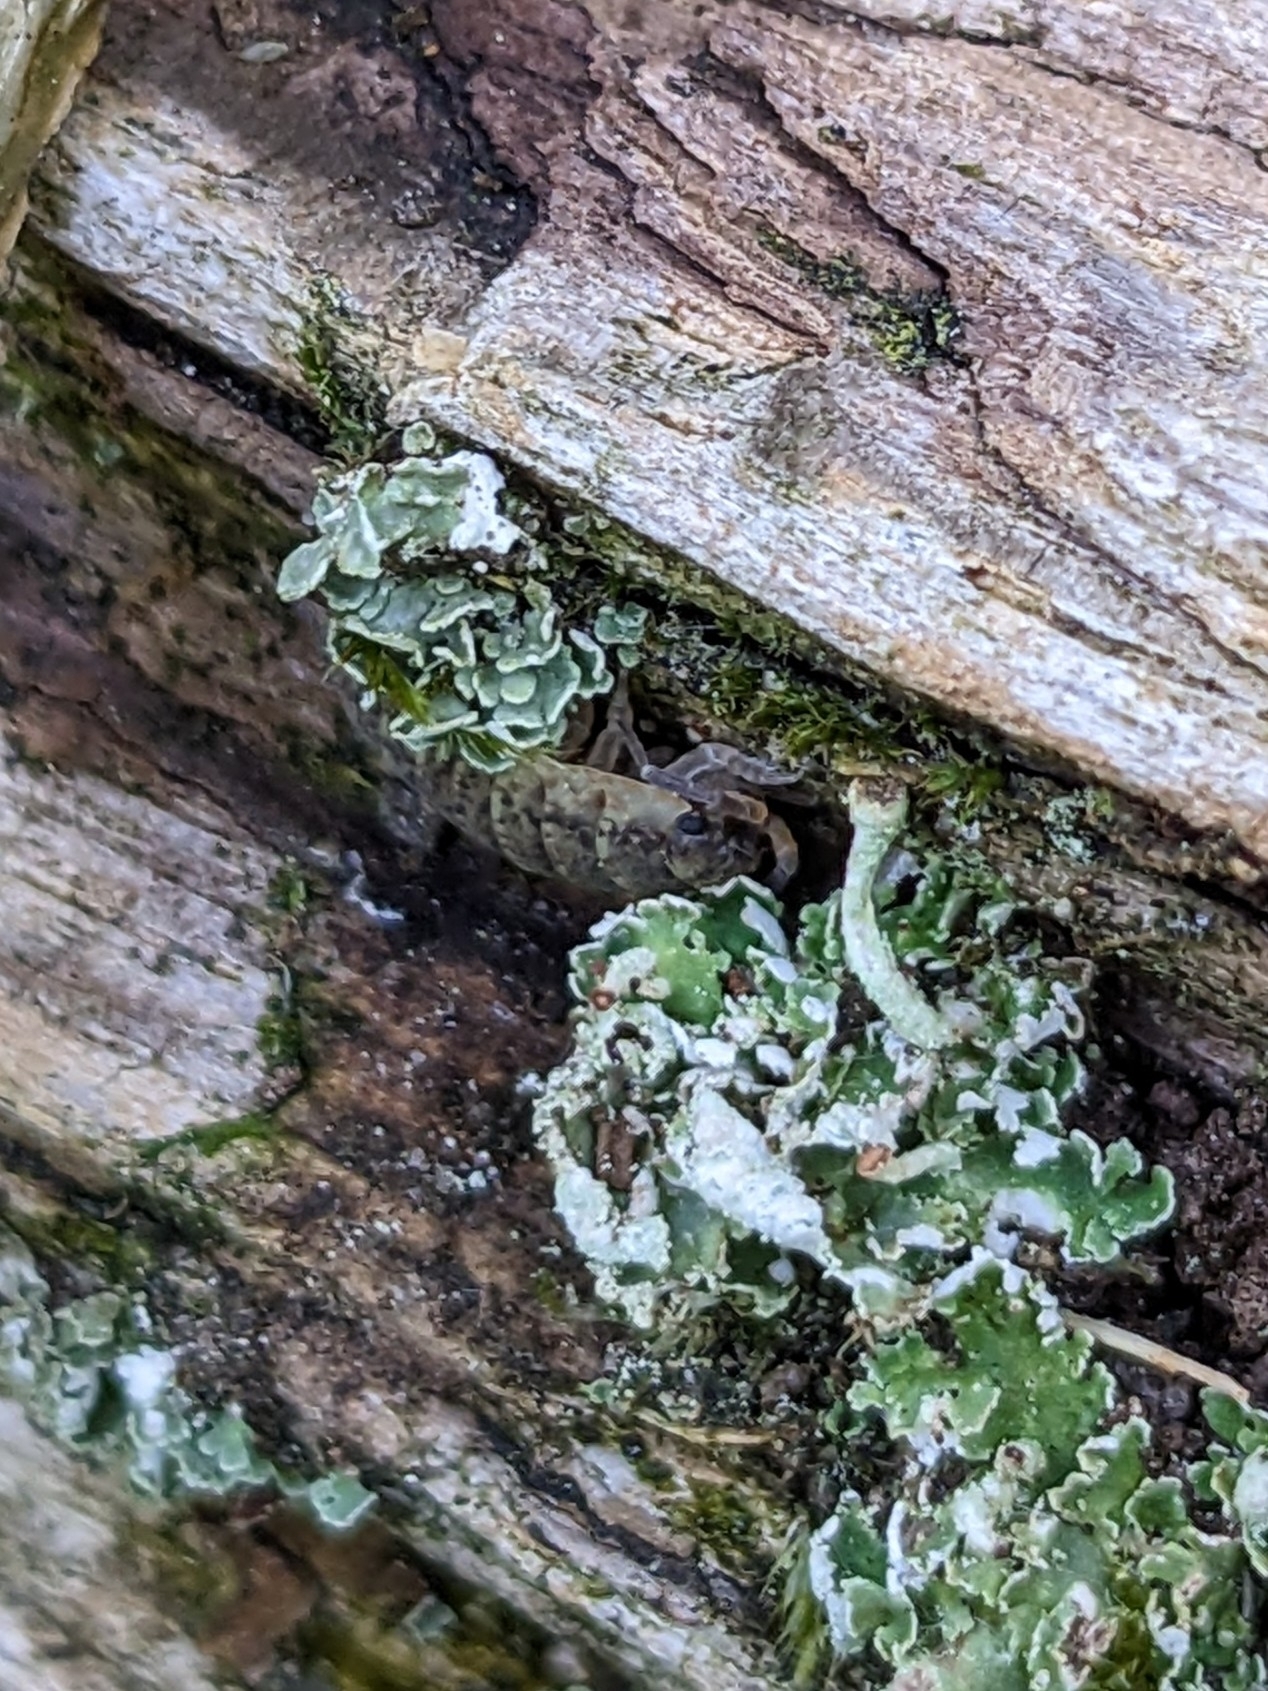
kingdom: Animalia
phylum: Arthropoda
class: Malacostraca
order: Isopoda
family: Porcellionidae
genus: Porcellio
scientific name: Porcellio scaber
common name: Common rough woodlouse
